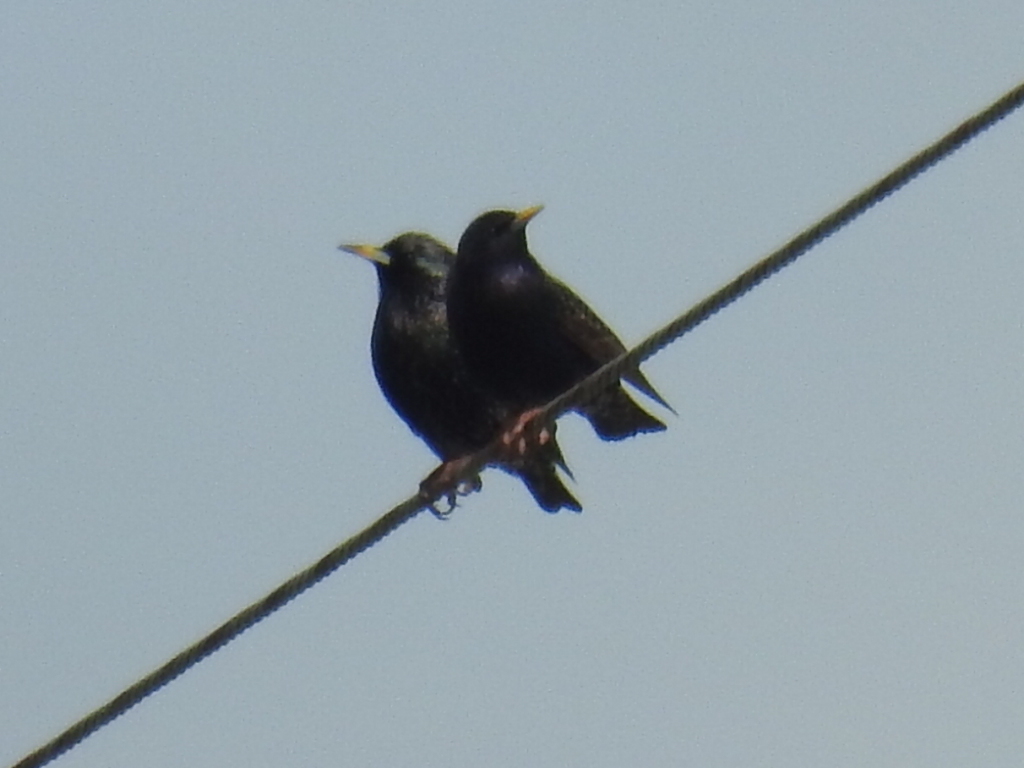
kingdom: Animalia
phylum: Chordata
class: Aves
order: Passeriformes
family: Sturnidae
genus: Sturnus
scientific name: Sturnus vulgaris
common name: Common starling
